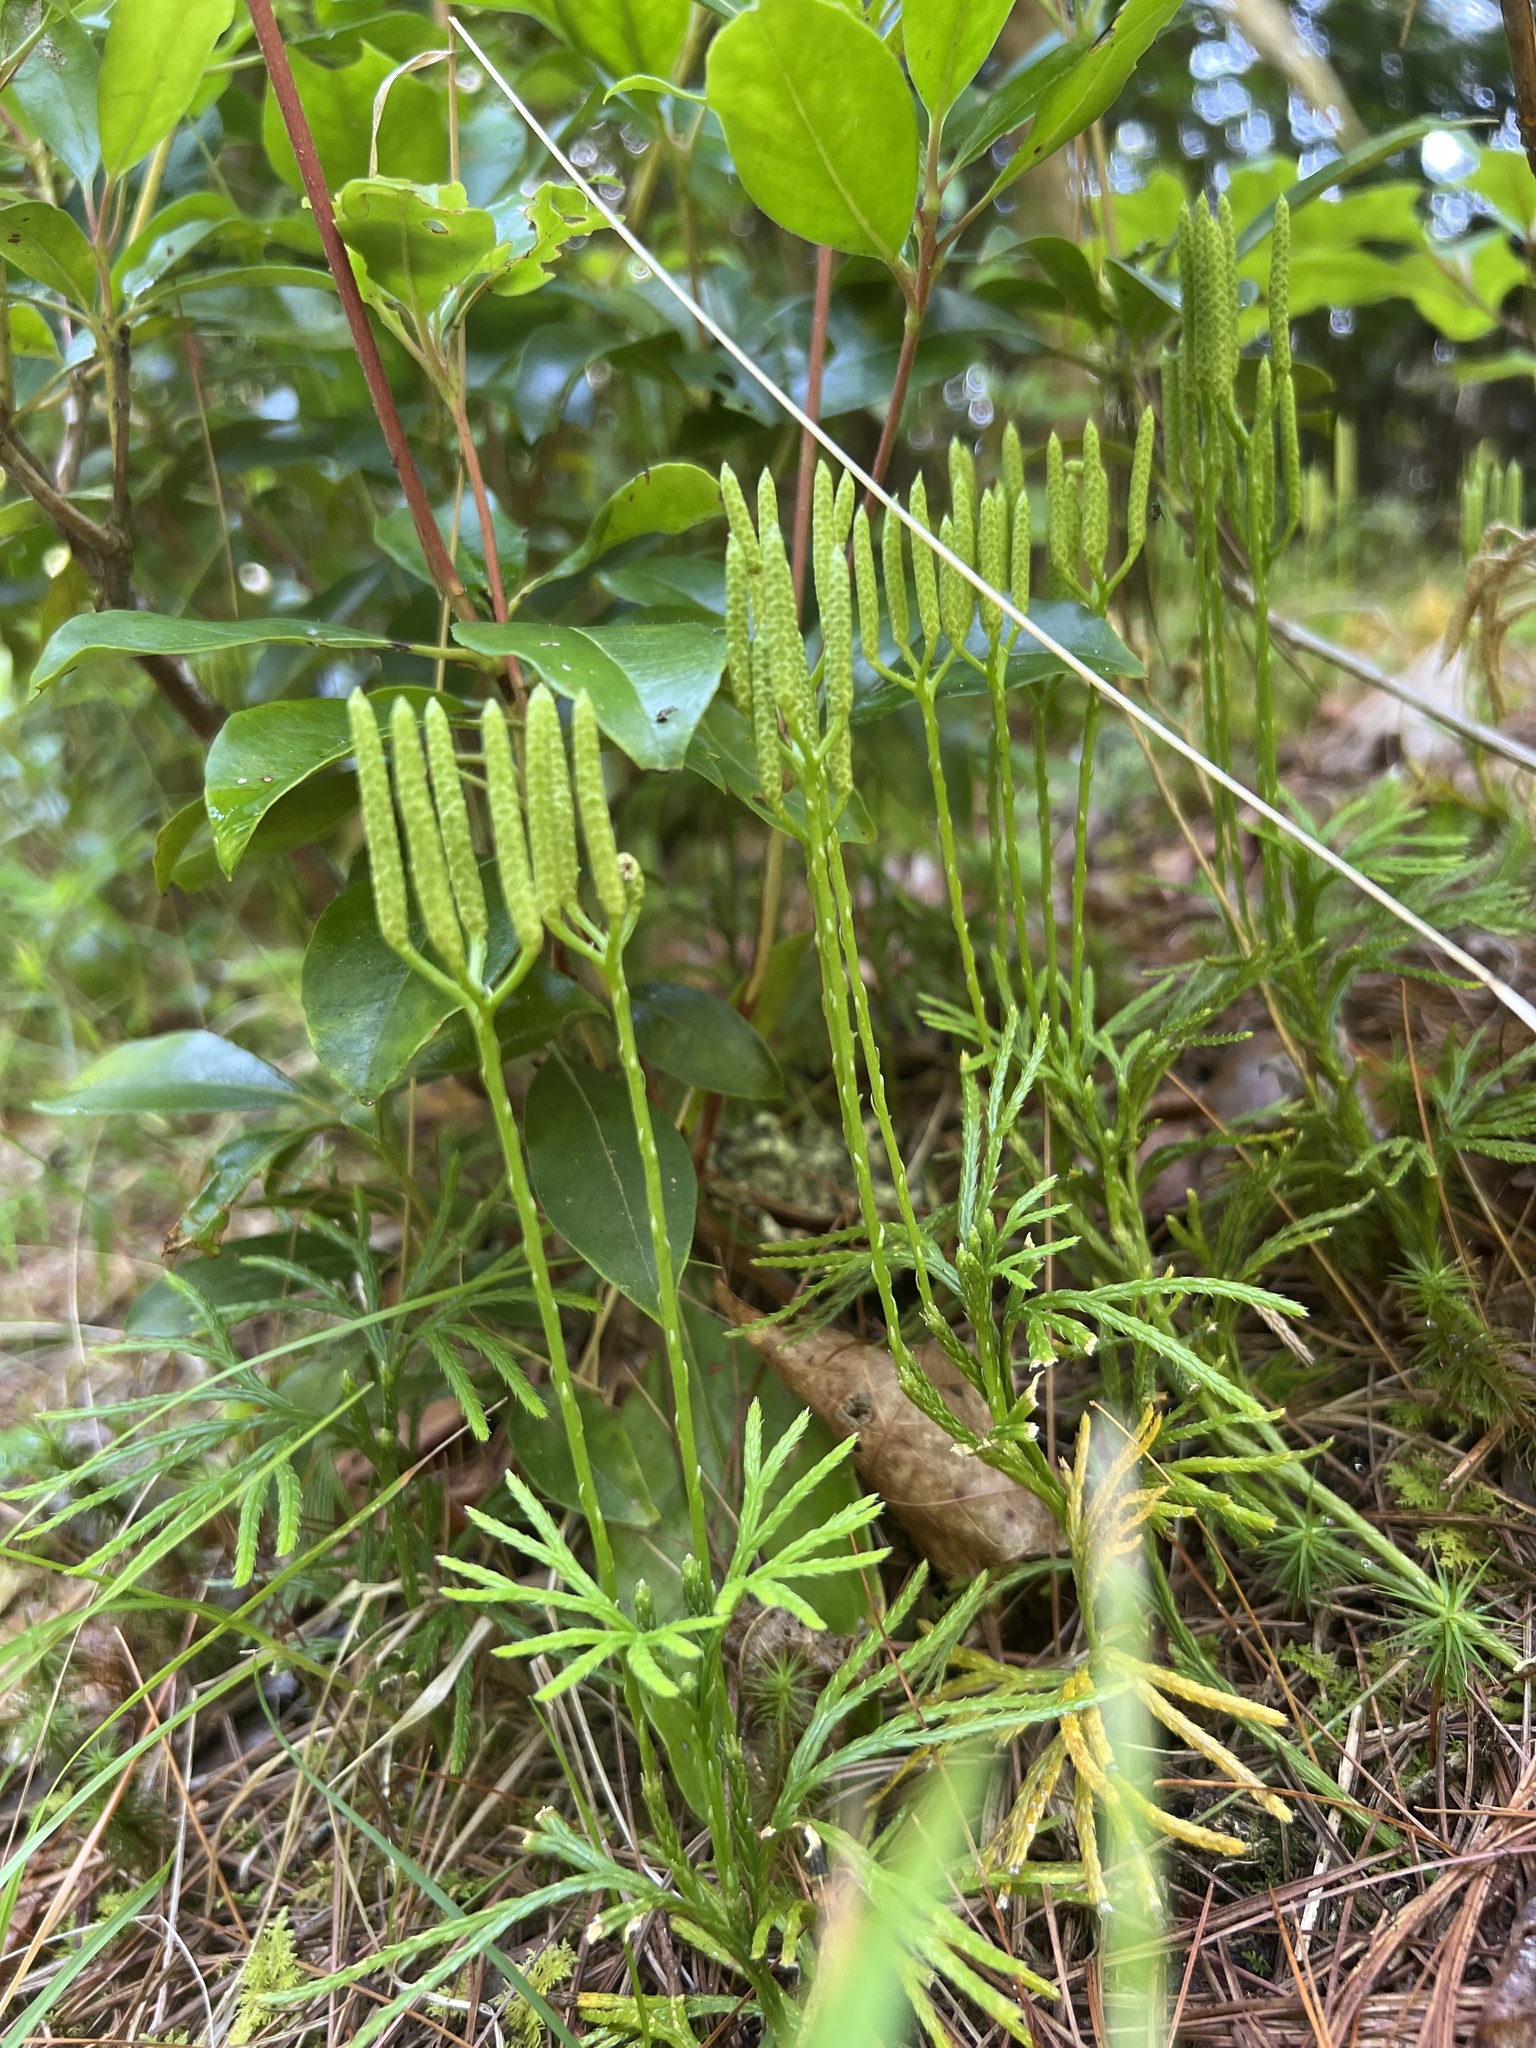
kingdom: Plantae
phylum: Tracheophyta
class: Lycopodiopsida
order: Lycopodiales
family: Lycopodiaceae
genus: Diphasiastrum
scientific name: Diphasiastrum digitatum
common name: Southern running-pine
